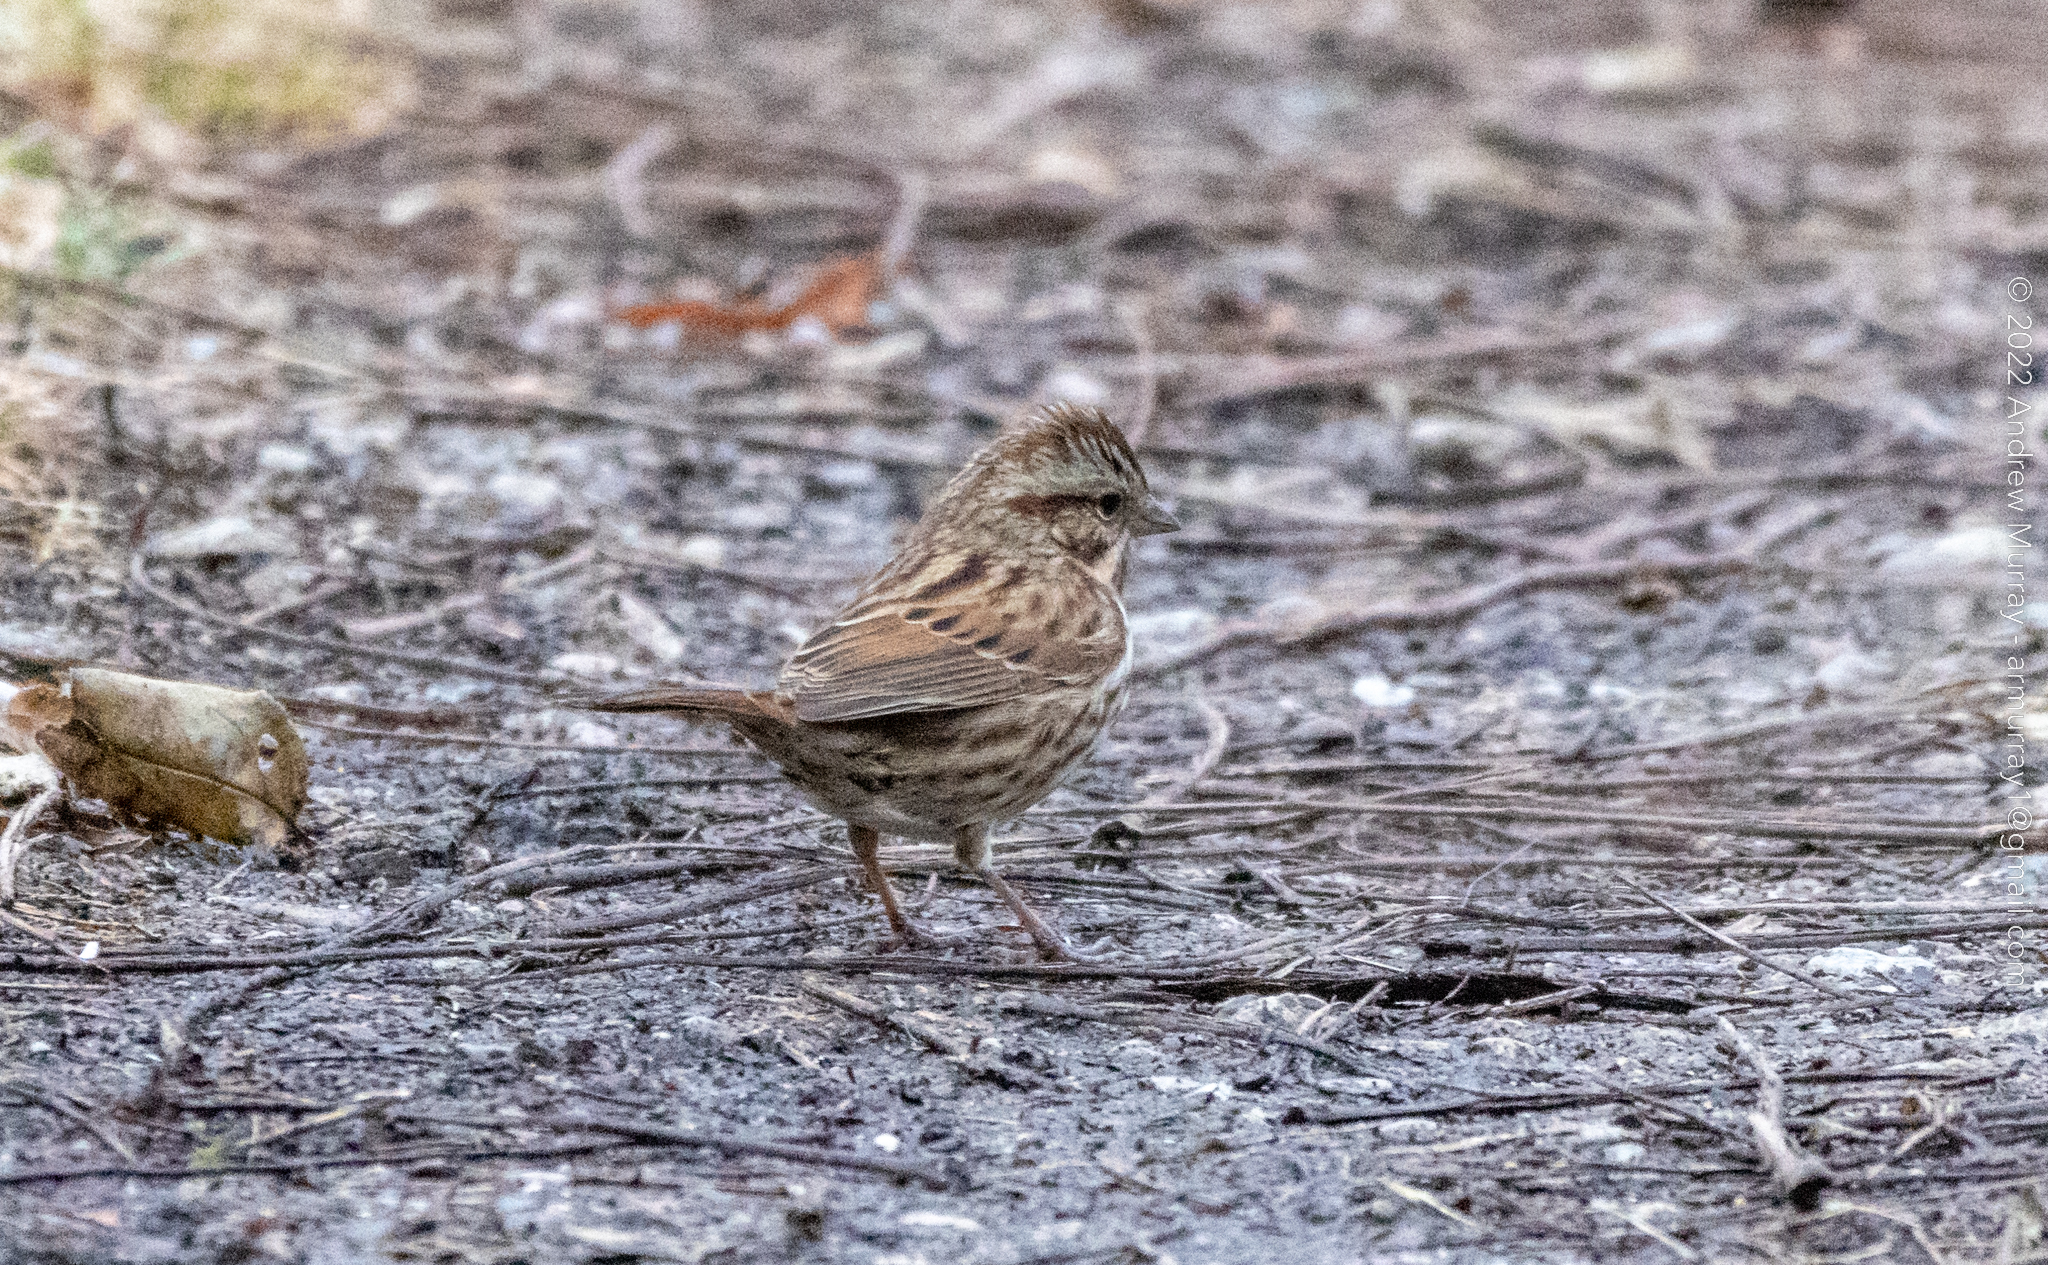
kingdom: Animalia
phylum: Chordata
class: Aves
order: Passeriformes
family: Passerellidae
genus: Melospiza
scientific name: Melospiza melodia
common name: Song sparrow
